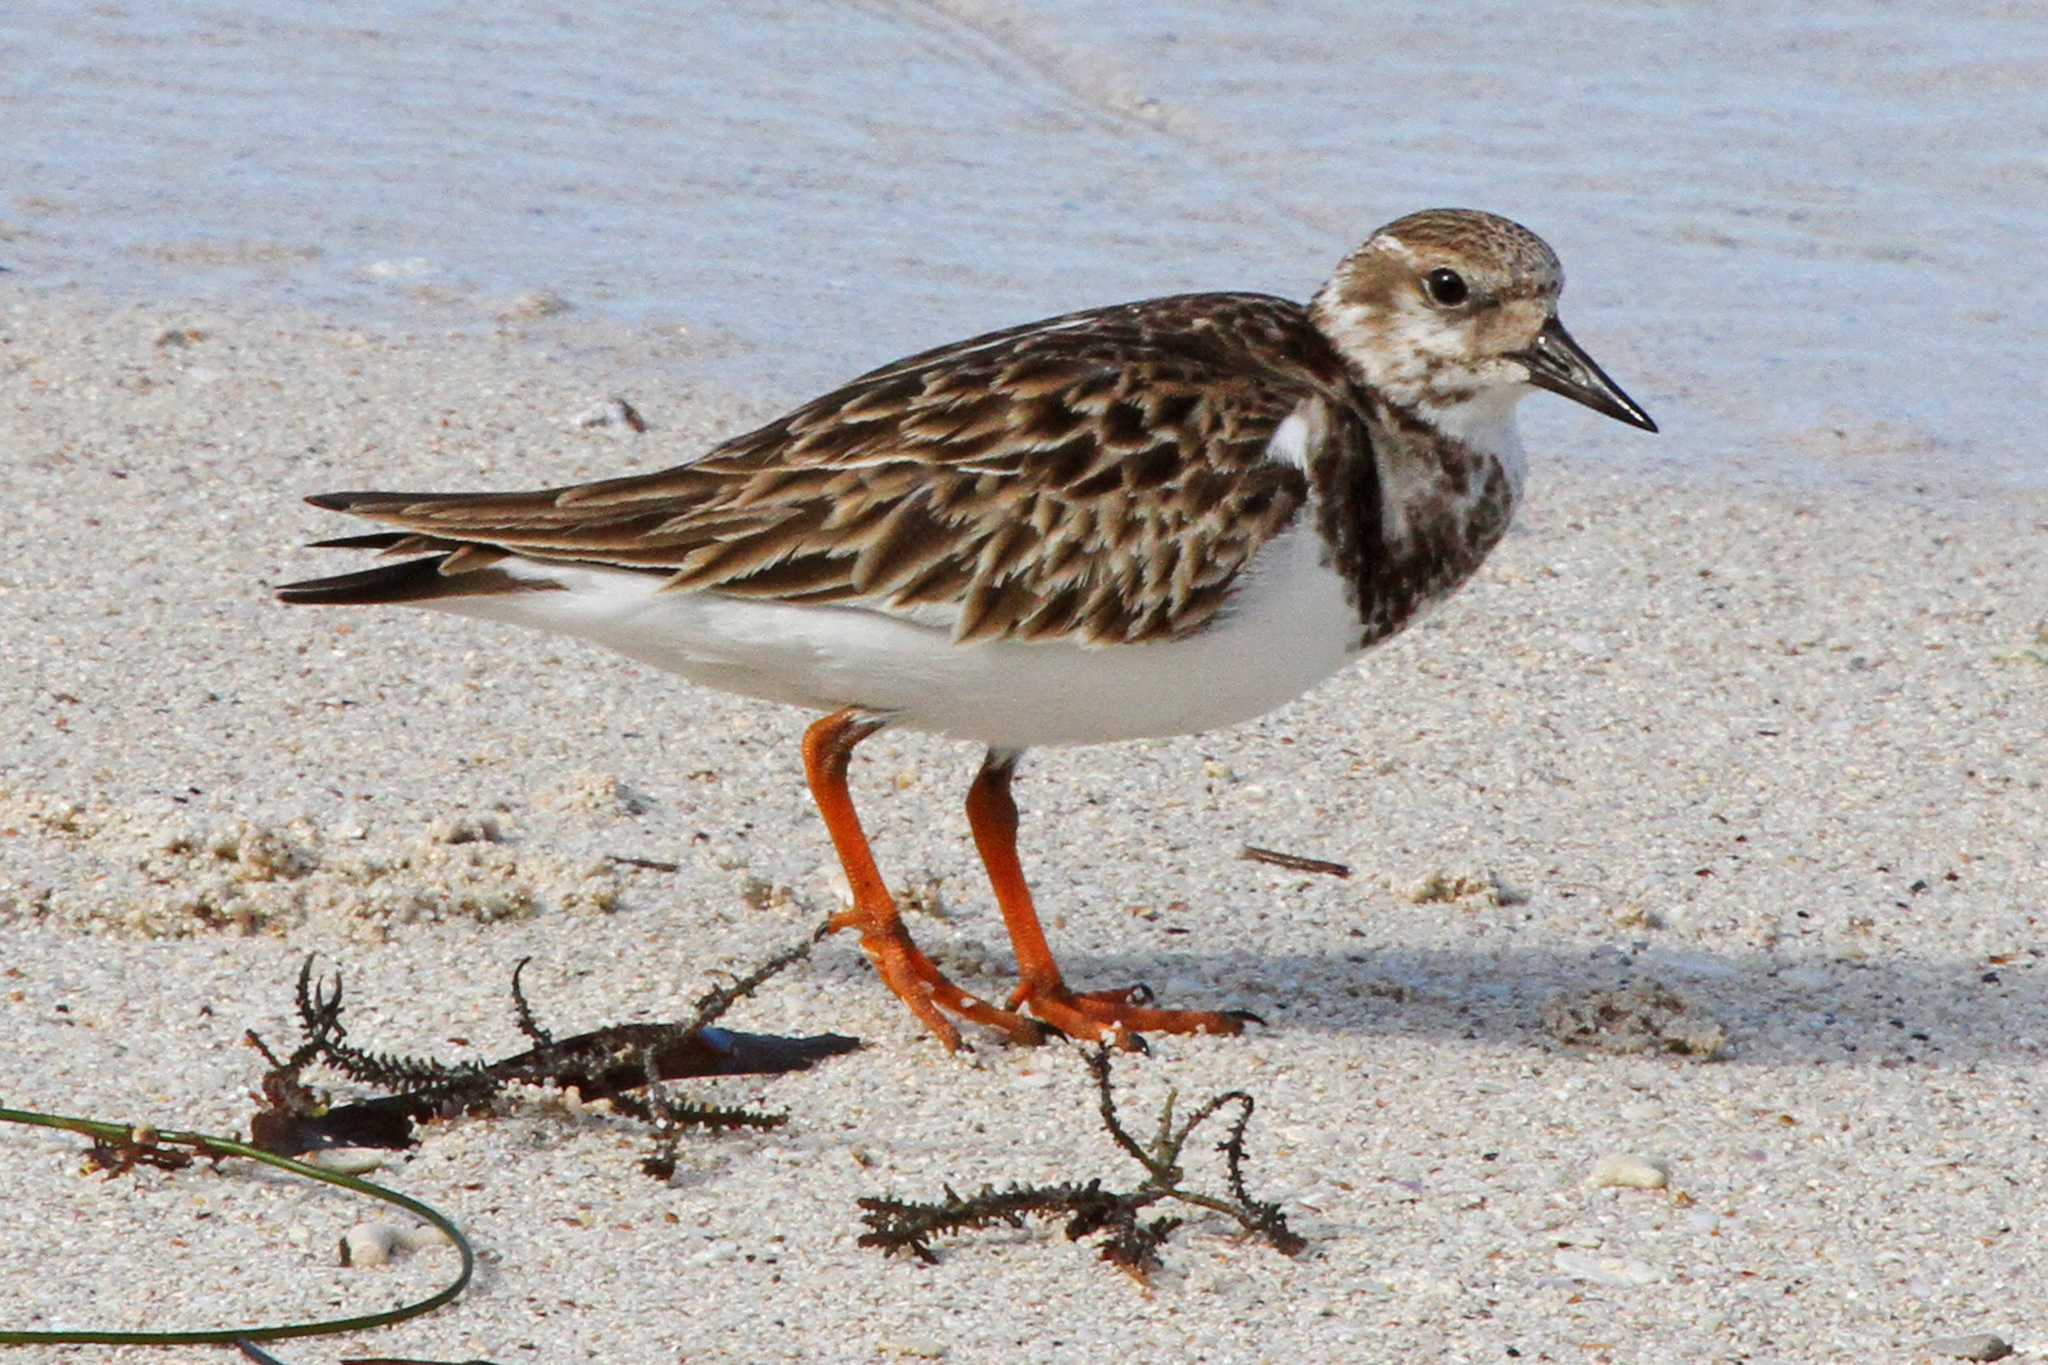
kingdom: Animalia
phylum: Chordata
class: Aves
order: Charadriiformes
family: Scolopacidae
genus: Arenaria
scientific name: Arenaria interpres
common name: Ruddy turnstone
